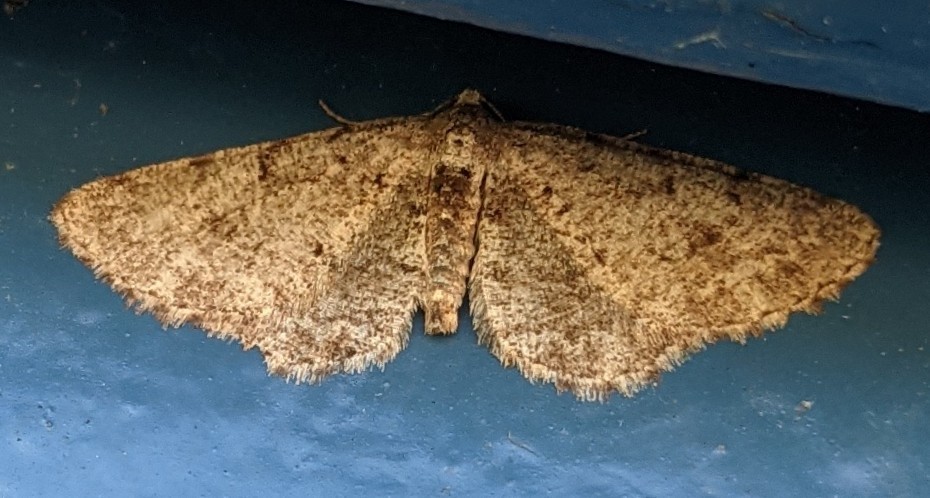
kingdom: Animalia
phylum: Arthropoda
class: Insecta
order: Lepidoptera
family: Geometridae
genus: Aethalura
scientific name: Aethalura intertexta
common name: Four-barred gray
